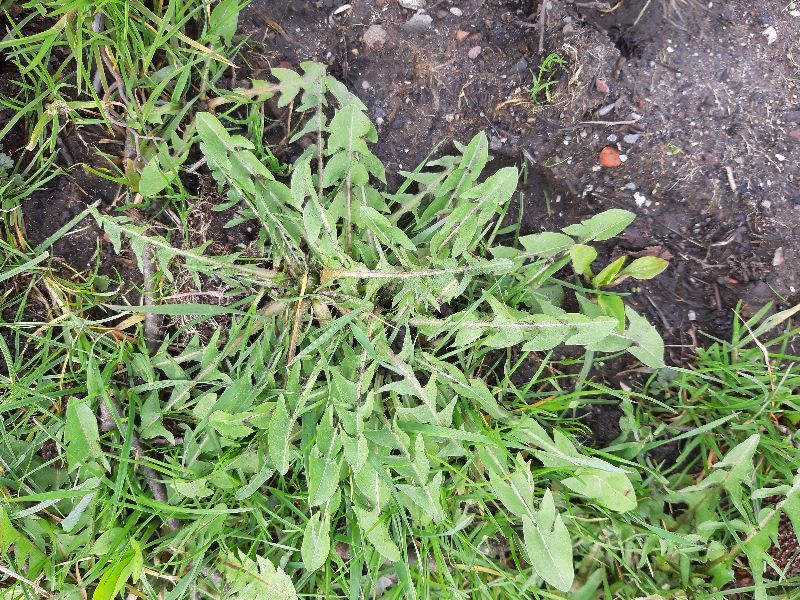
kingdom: Plantae
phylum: Tracheophyta
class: Magnoliopsida
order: Asterales
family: Asteraceae
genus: Taraxacum
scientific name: Taraxacum officinale
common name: Common dandelion
